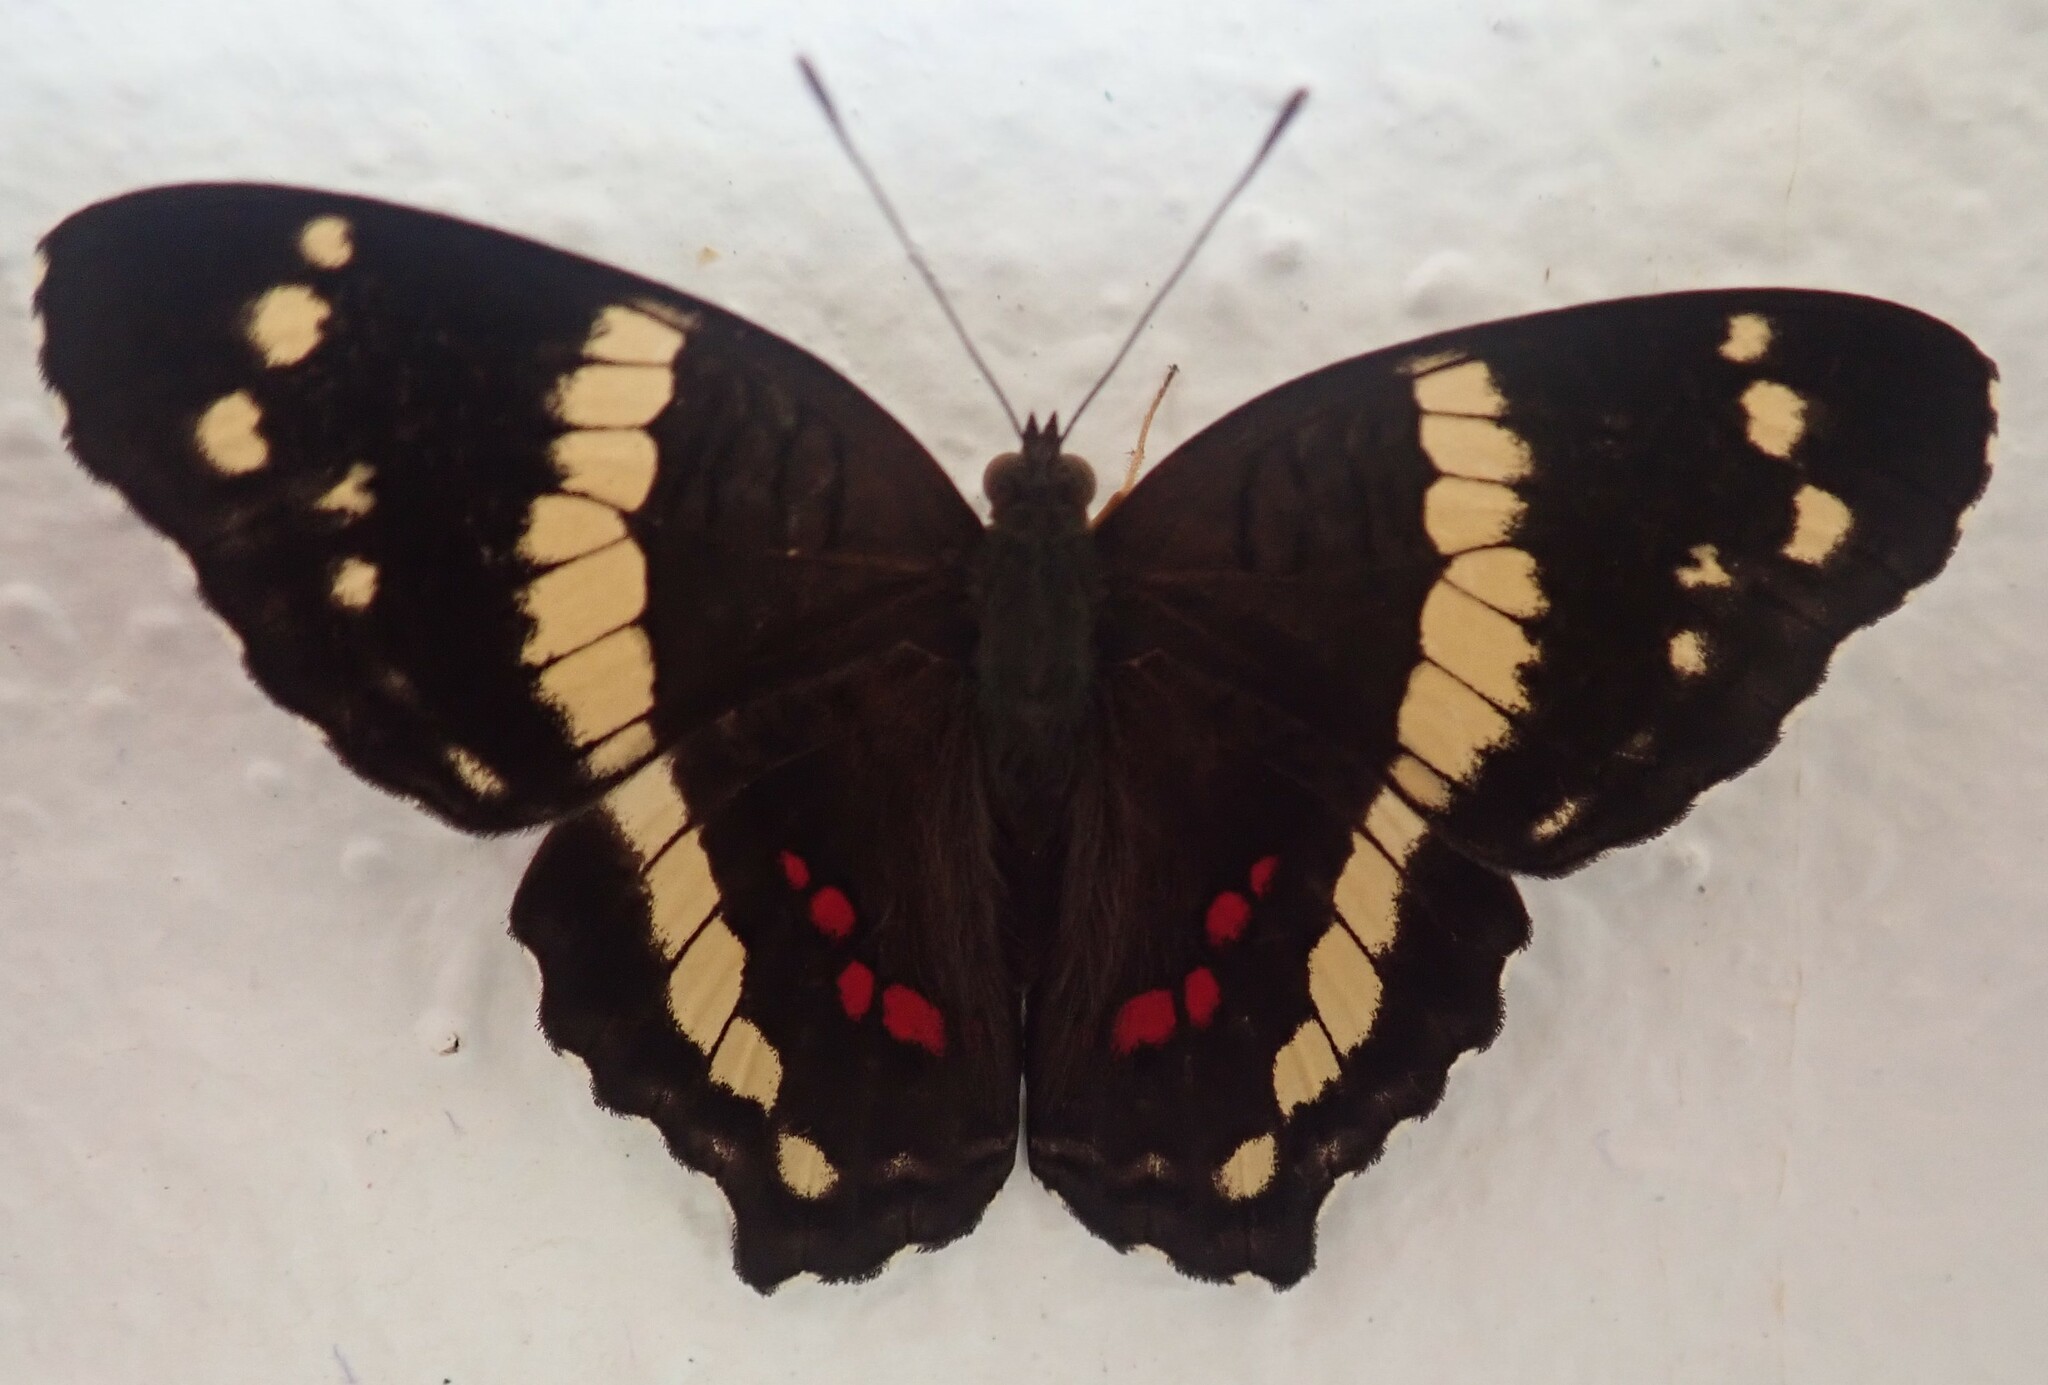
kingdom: Animalia
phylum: Arthropoda
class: Insecta
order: Lepidoptera
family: Nymphalidae
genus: Anartia
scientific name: Anartia fatima
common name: Banded peacock
